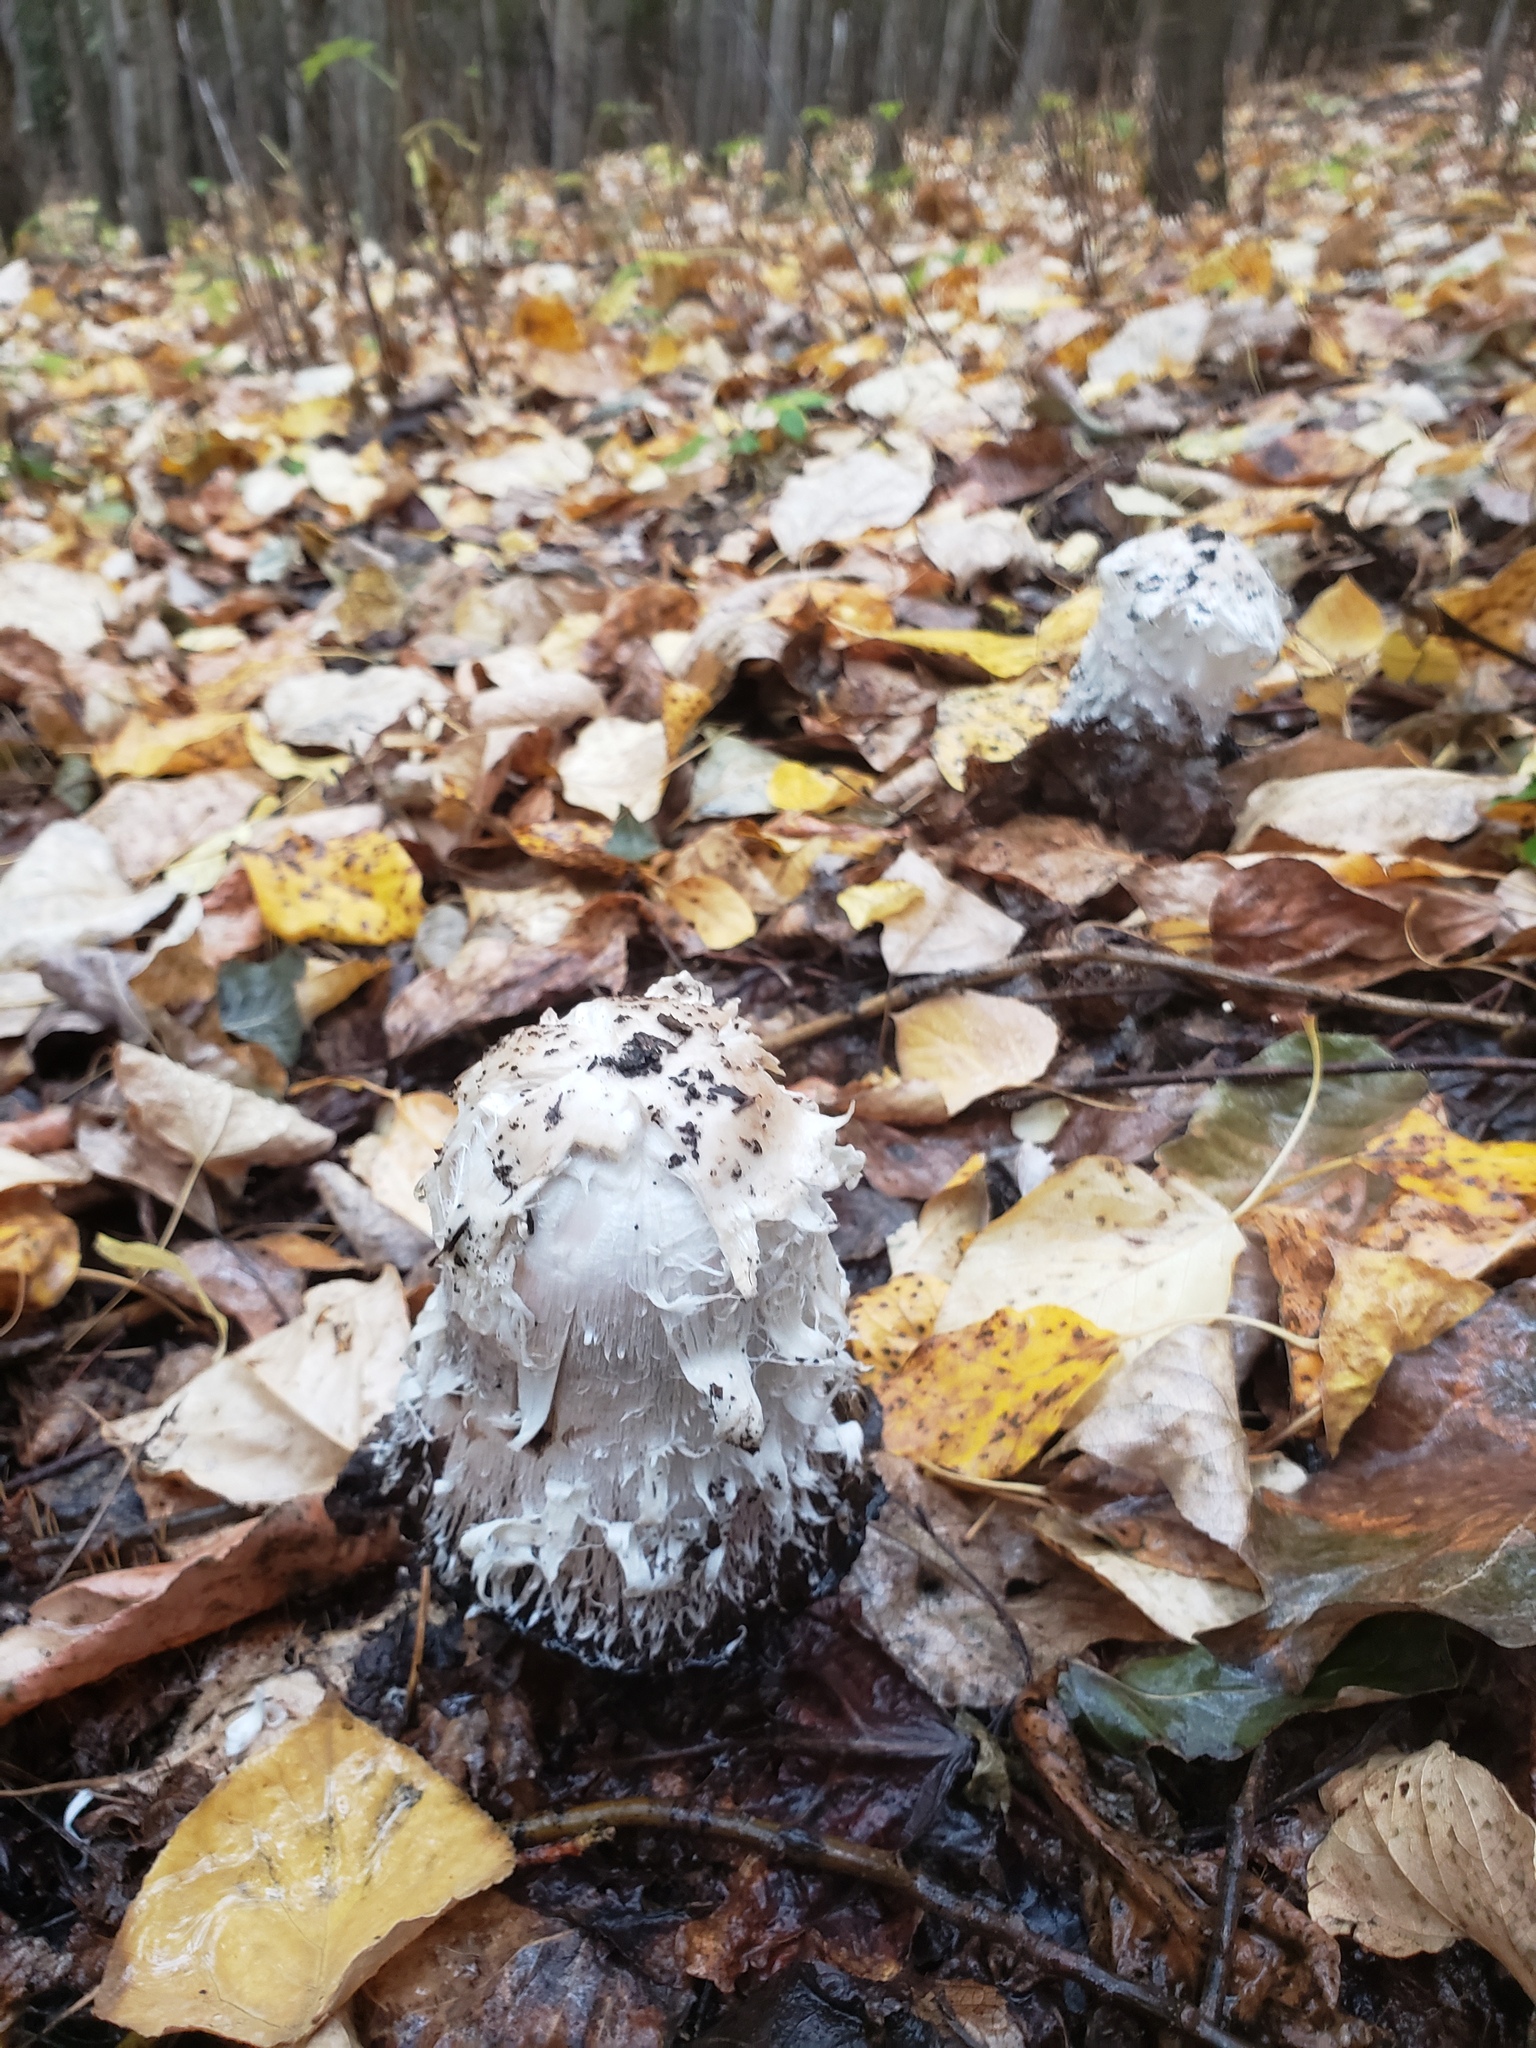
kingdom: Fungi
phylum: Basidiomycota
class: Agaricomycetes
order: Agaricales
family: Agaricaceae
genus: Coprinus
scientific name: Coprinus comatus
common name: Lawyer's wig
